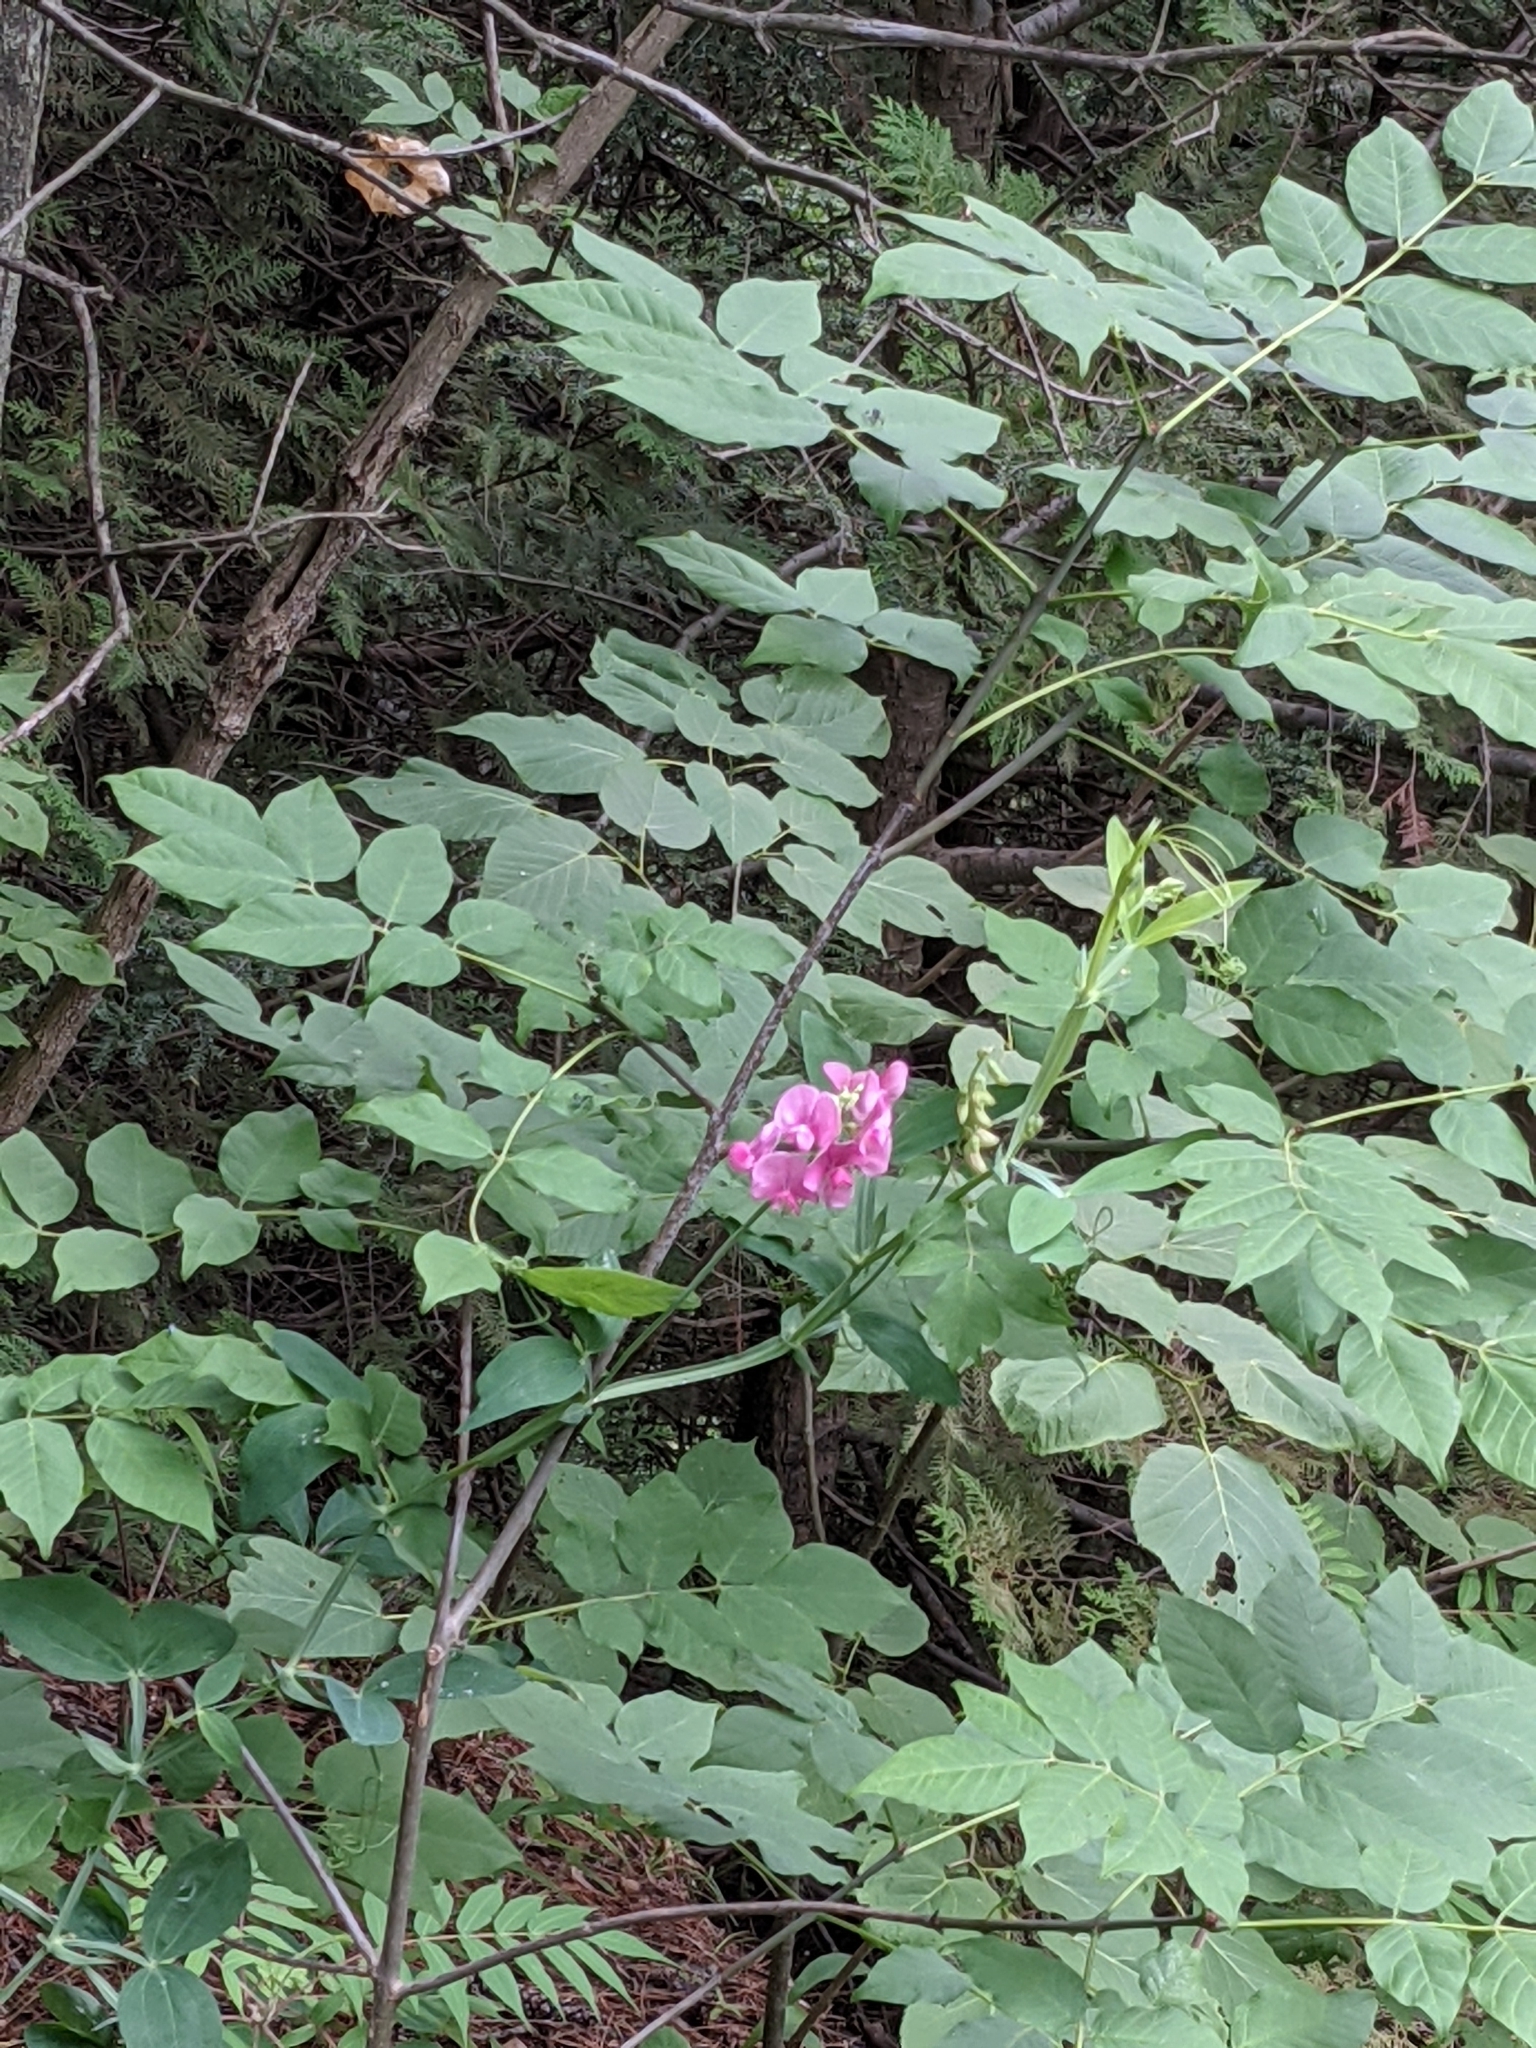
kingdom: Plantae
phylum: Tracheophyta
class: Magnoliopsida
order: Fabales
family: Fabaceae
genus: Lathyrus
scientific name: Lathyrus latifolius
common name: Perennial pea
